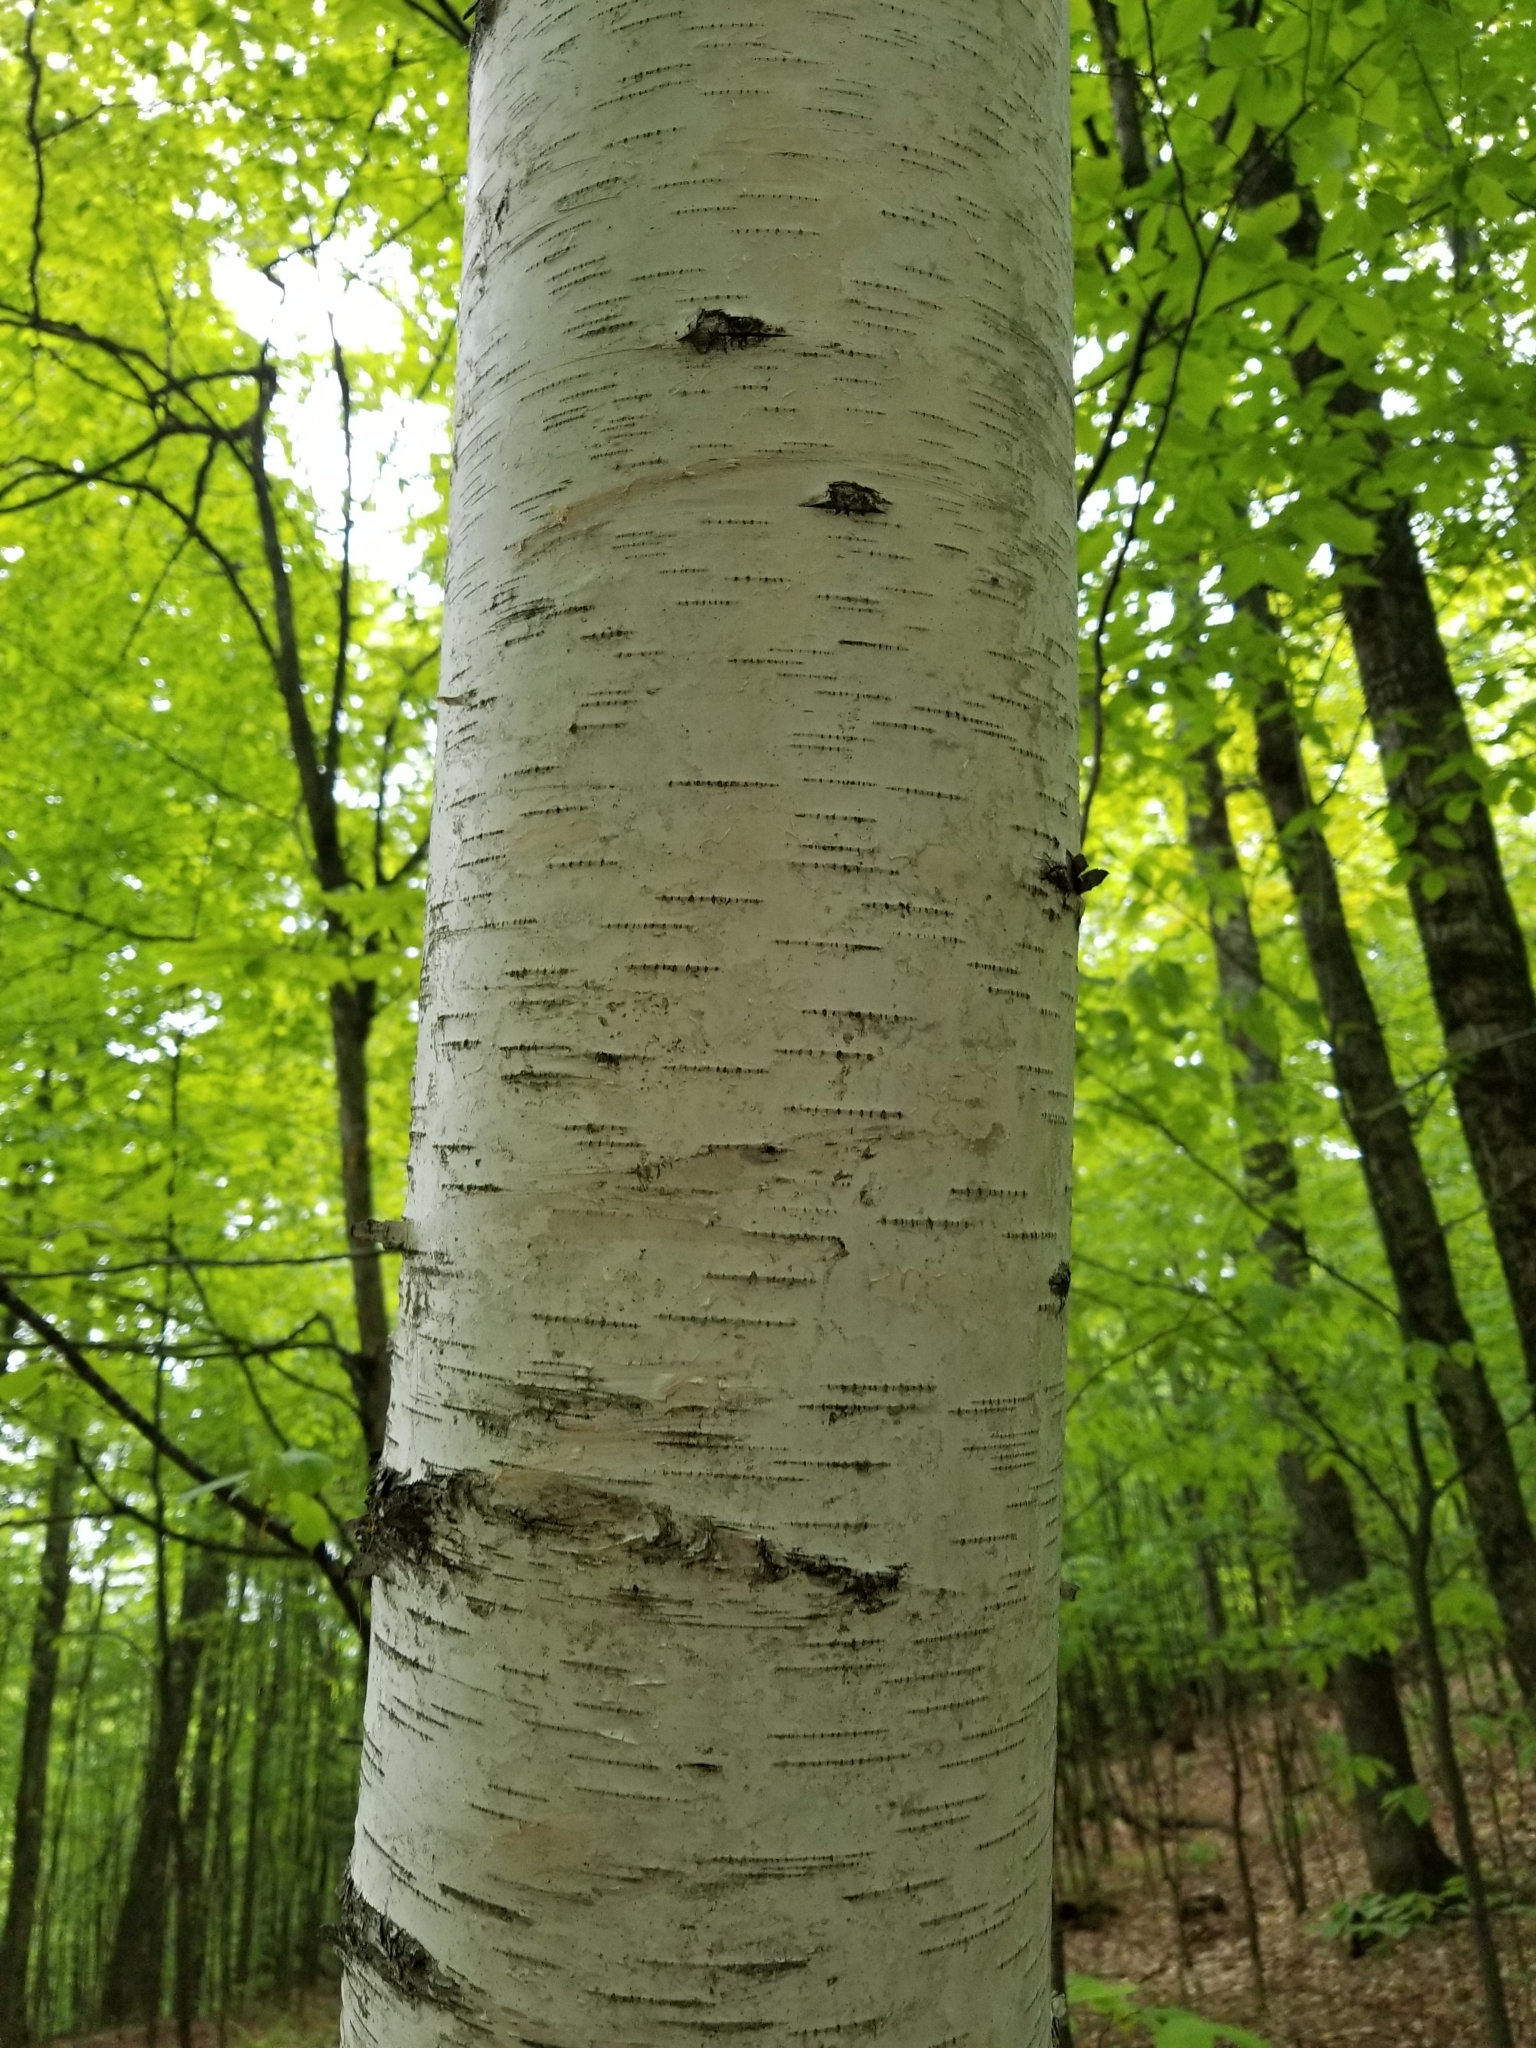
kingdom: Plantae
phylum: Tracheophyta
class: Magnoliopsida
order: Fagales
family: Betulaceae
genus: Betula
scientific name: Betula papyrifera
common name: Paper birch
